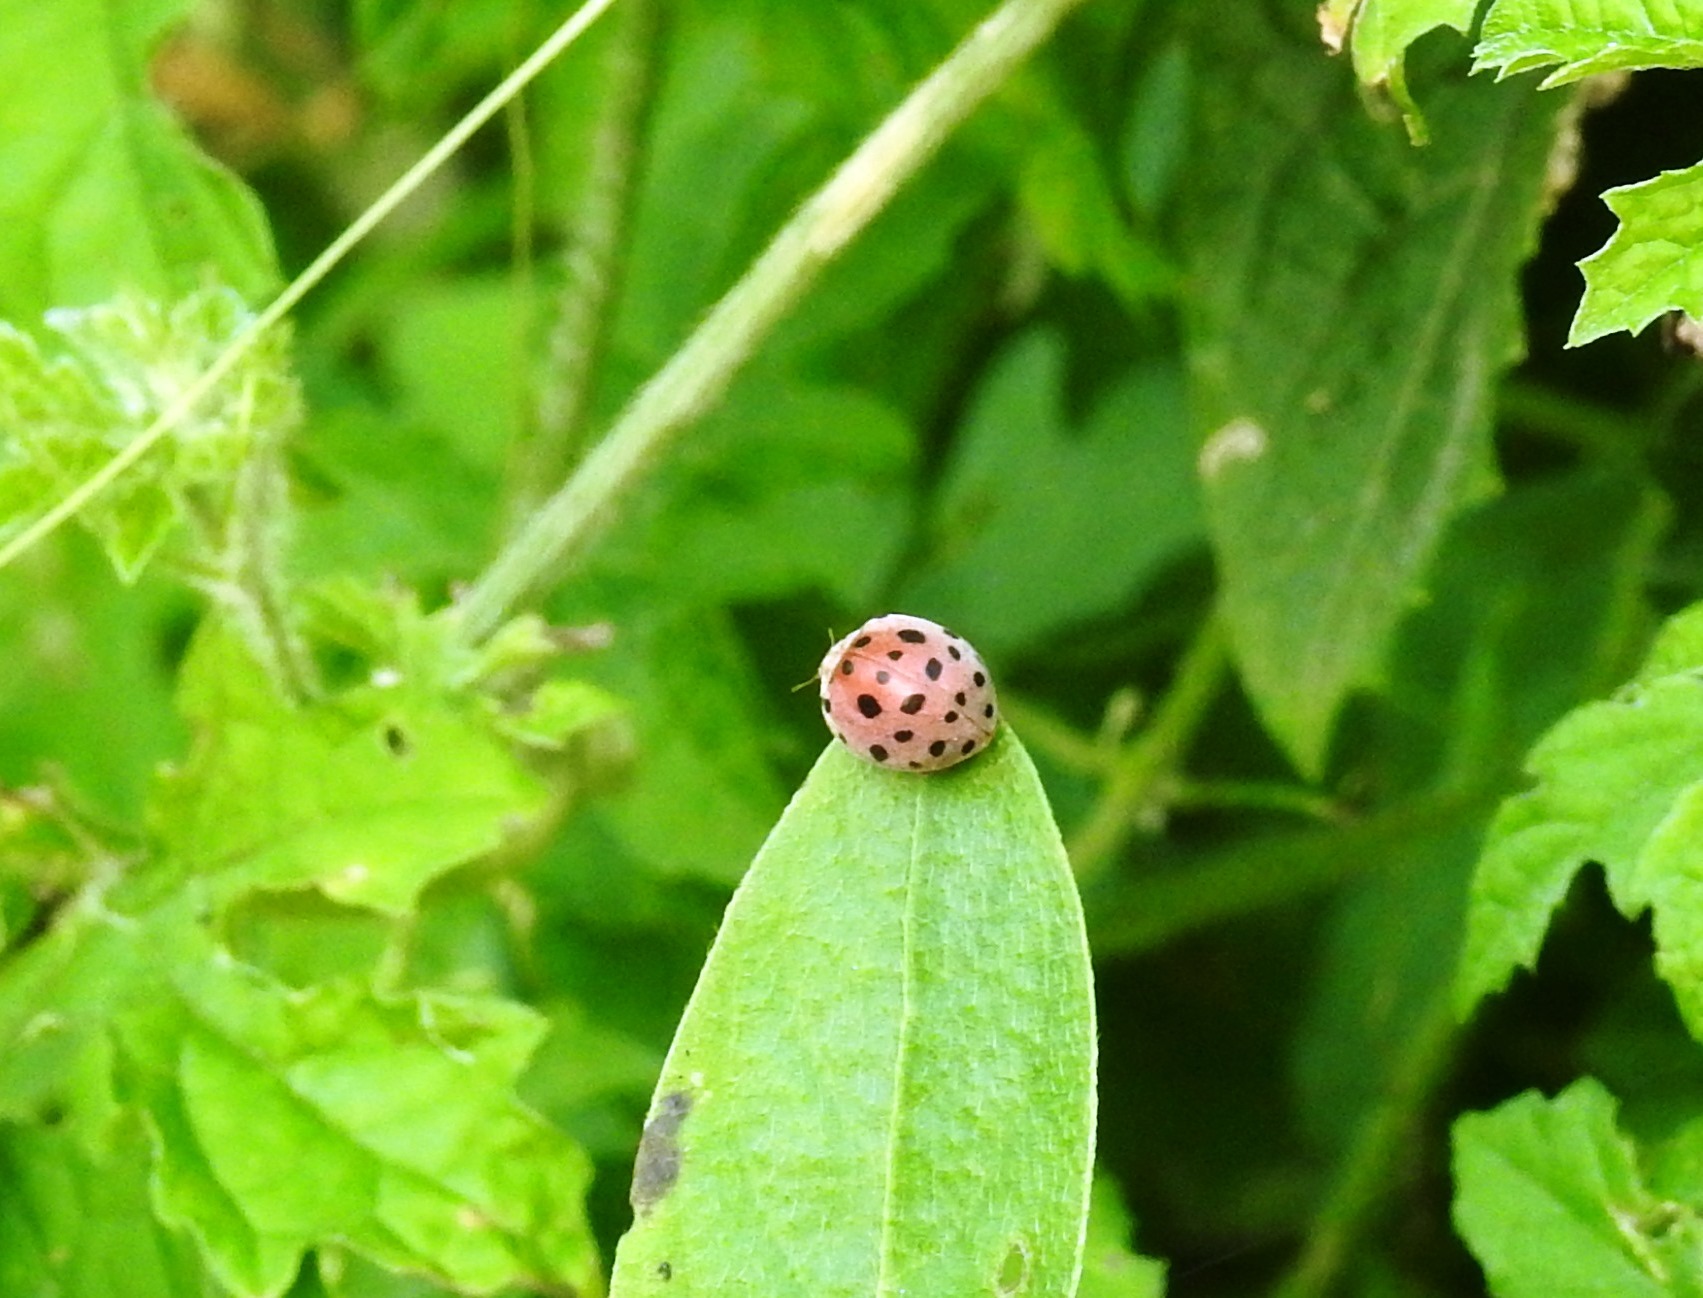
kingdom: Animalia
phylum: Arthropoda
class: Insecta
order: Coleoptera
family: Coccinellidae
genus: Henosepilachna
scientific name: Henosepilachna vigintioctopunctata
